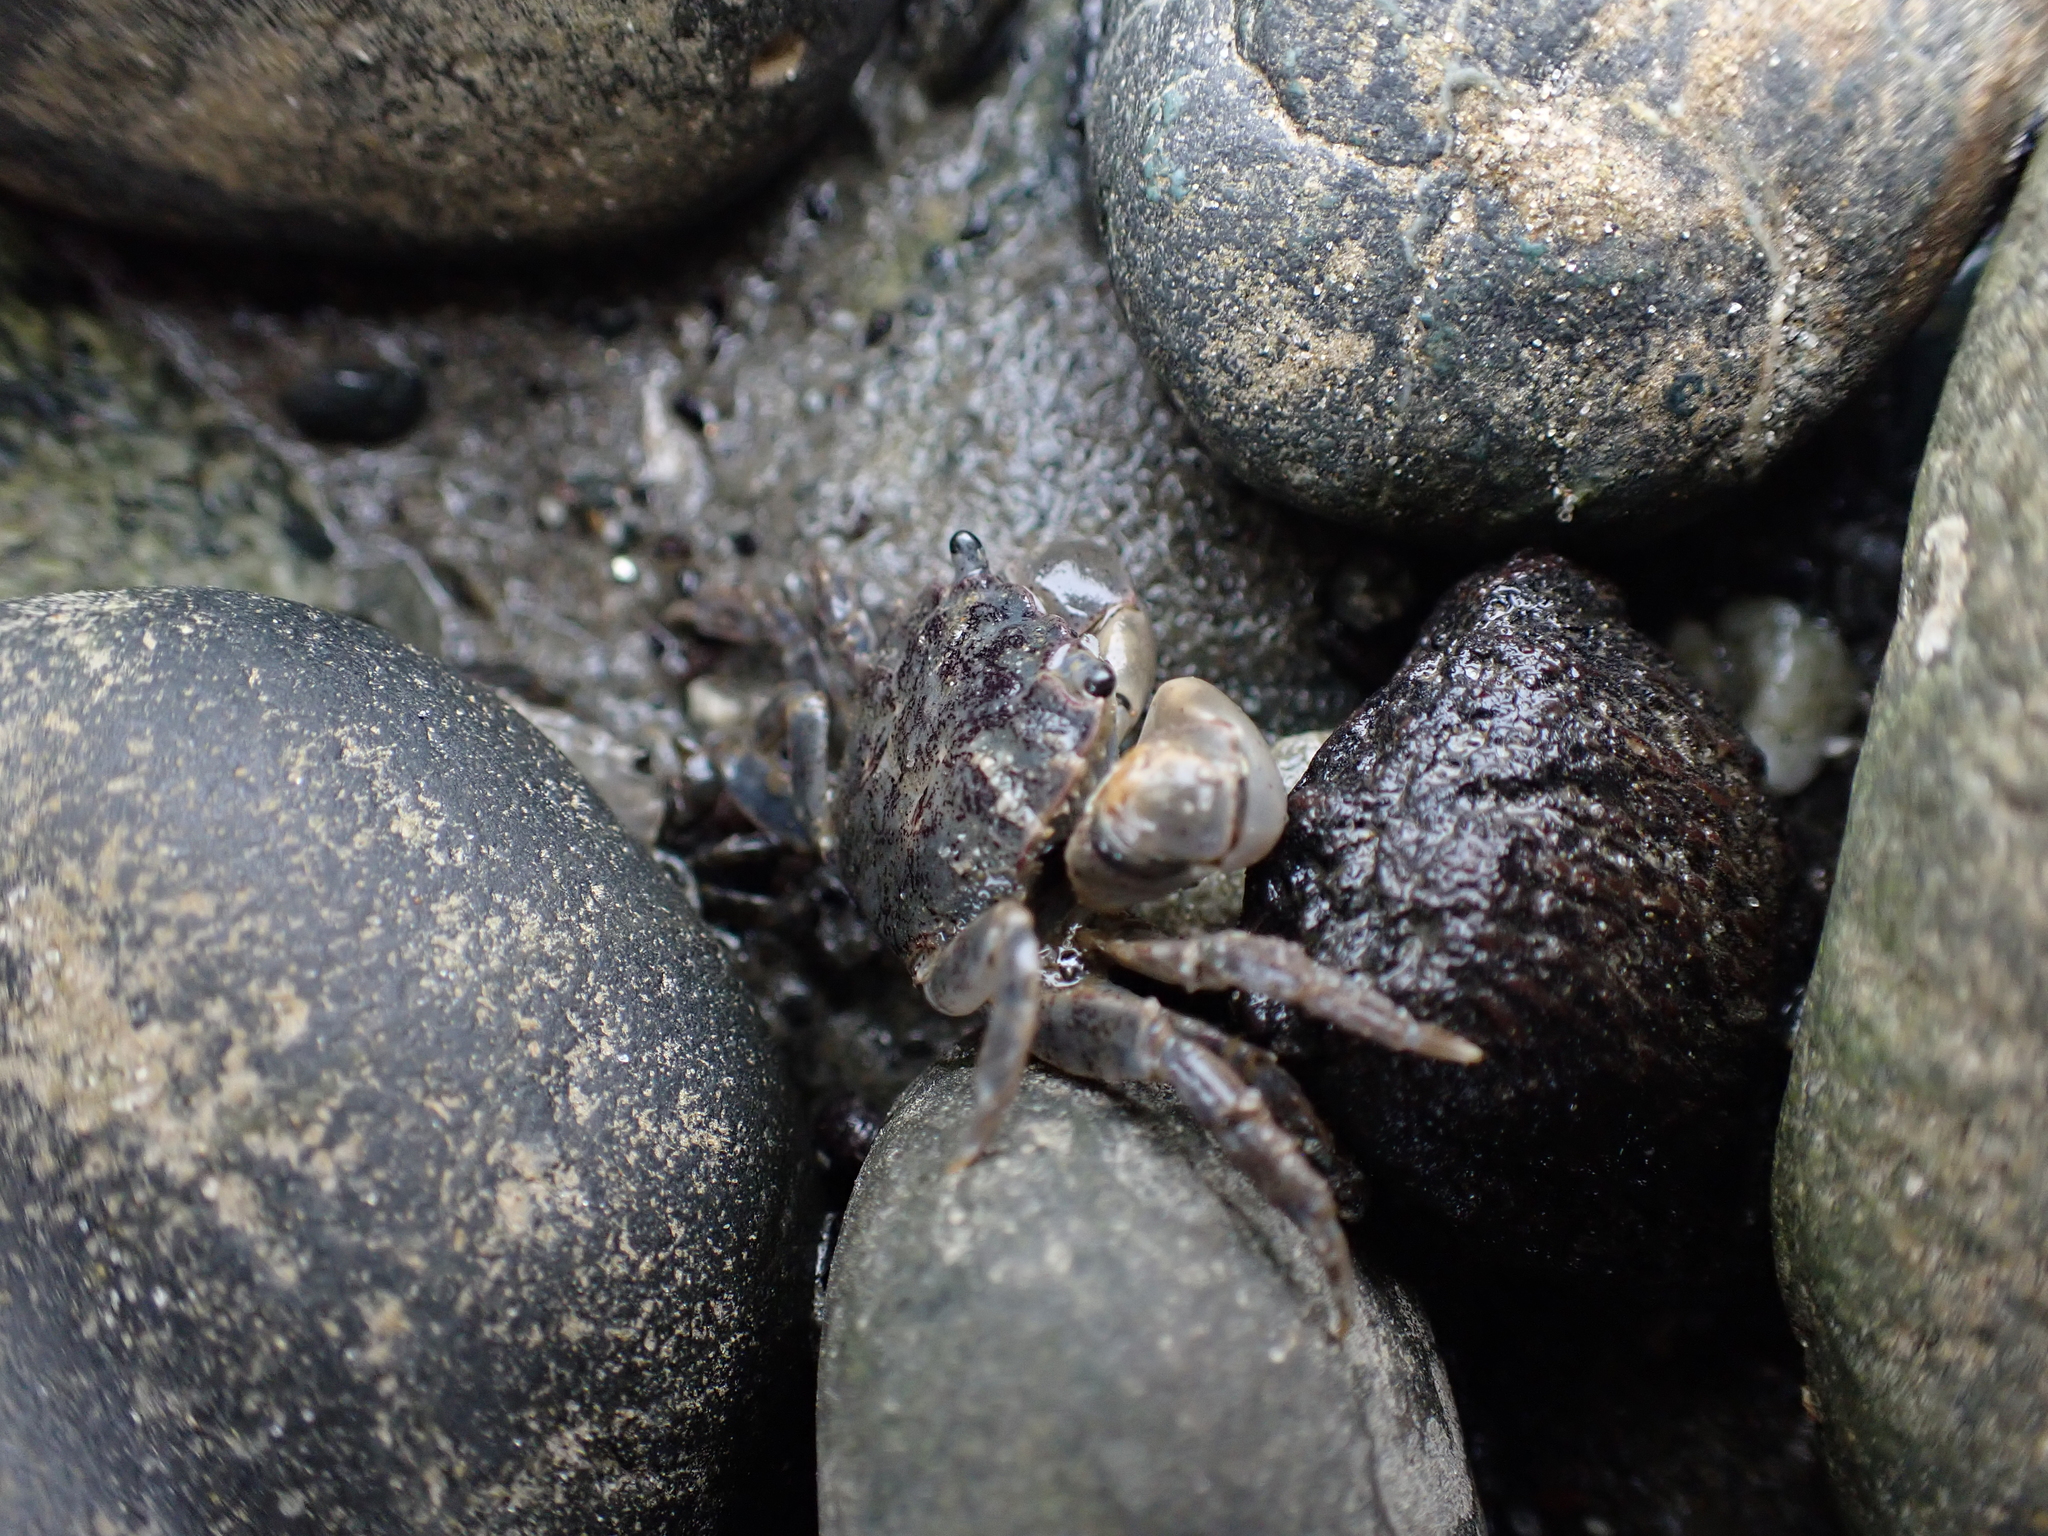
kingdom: Animalia
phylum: Arthropoda
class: Malacostraca
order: Decapoda
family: Varunidae
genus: Hemigrapsus
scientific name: Hemigrapsus oregonensis
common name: Yellow shore crab
